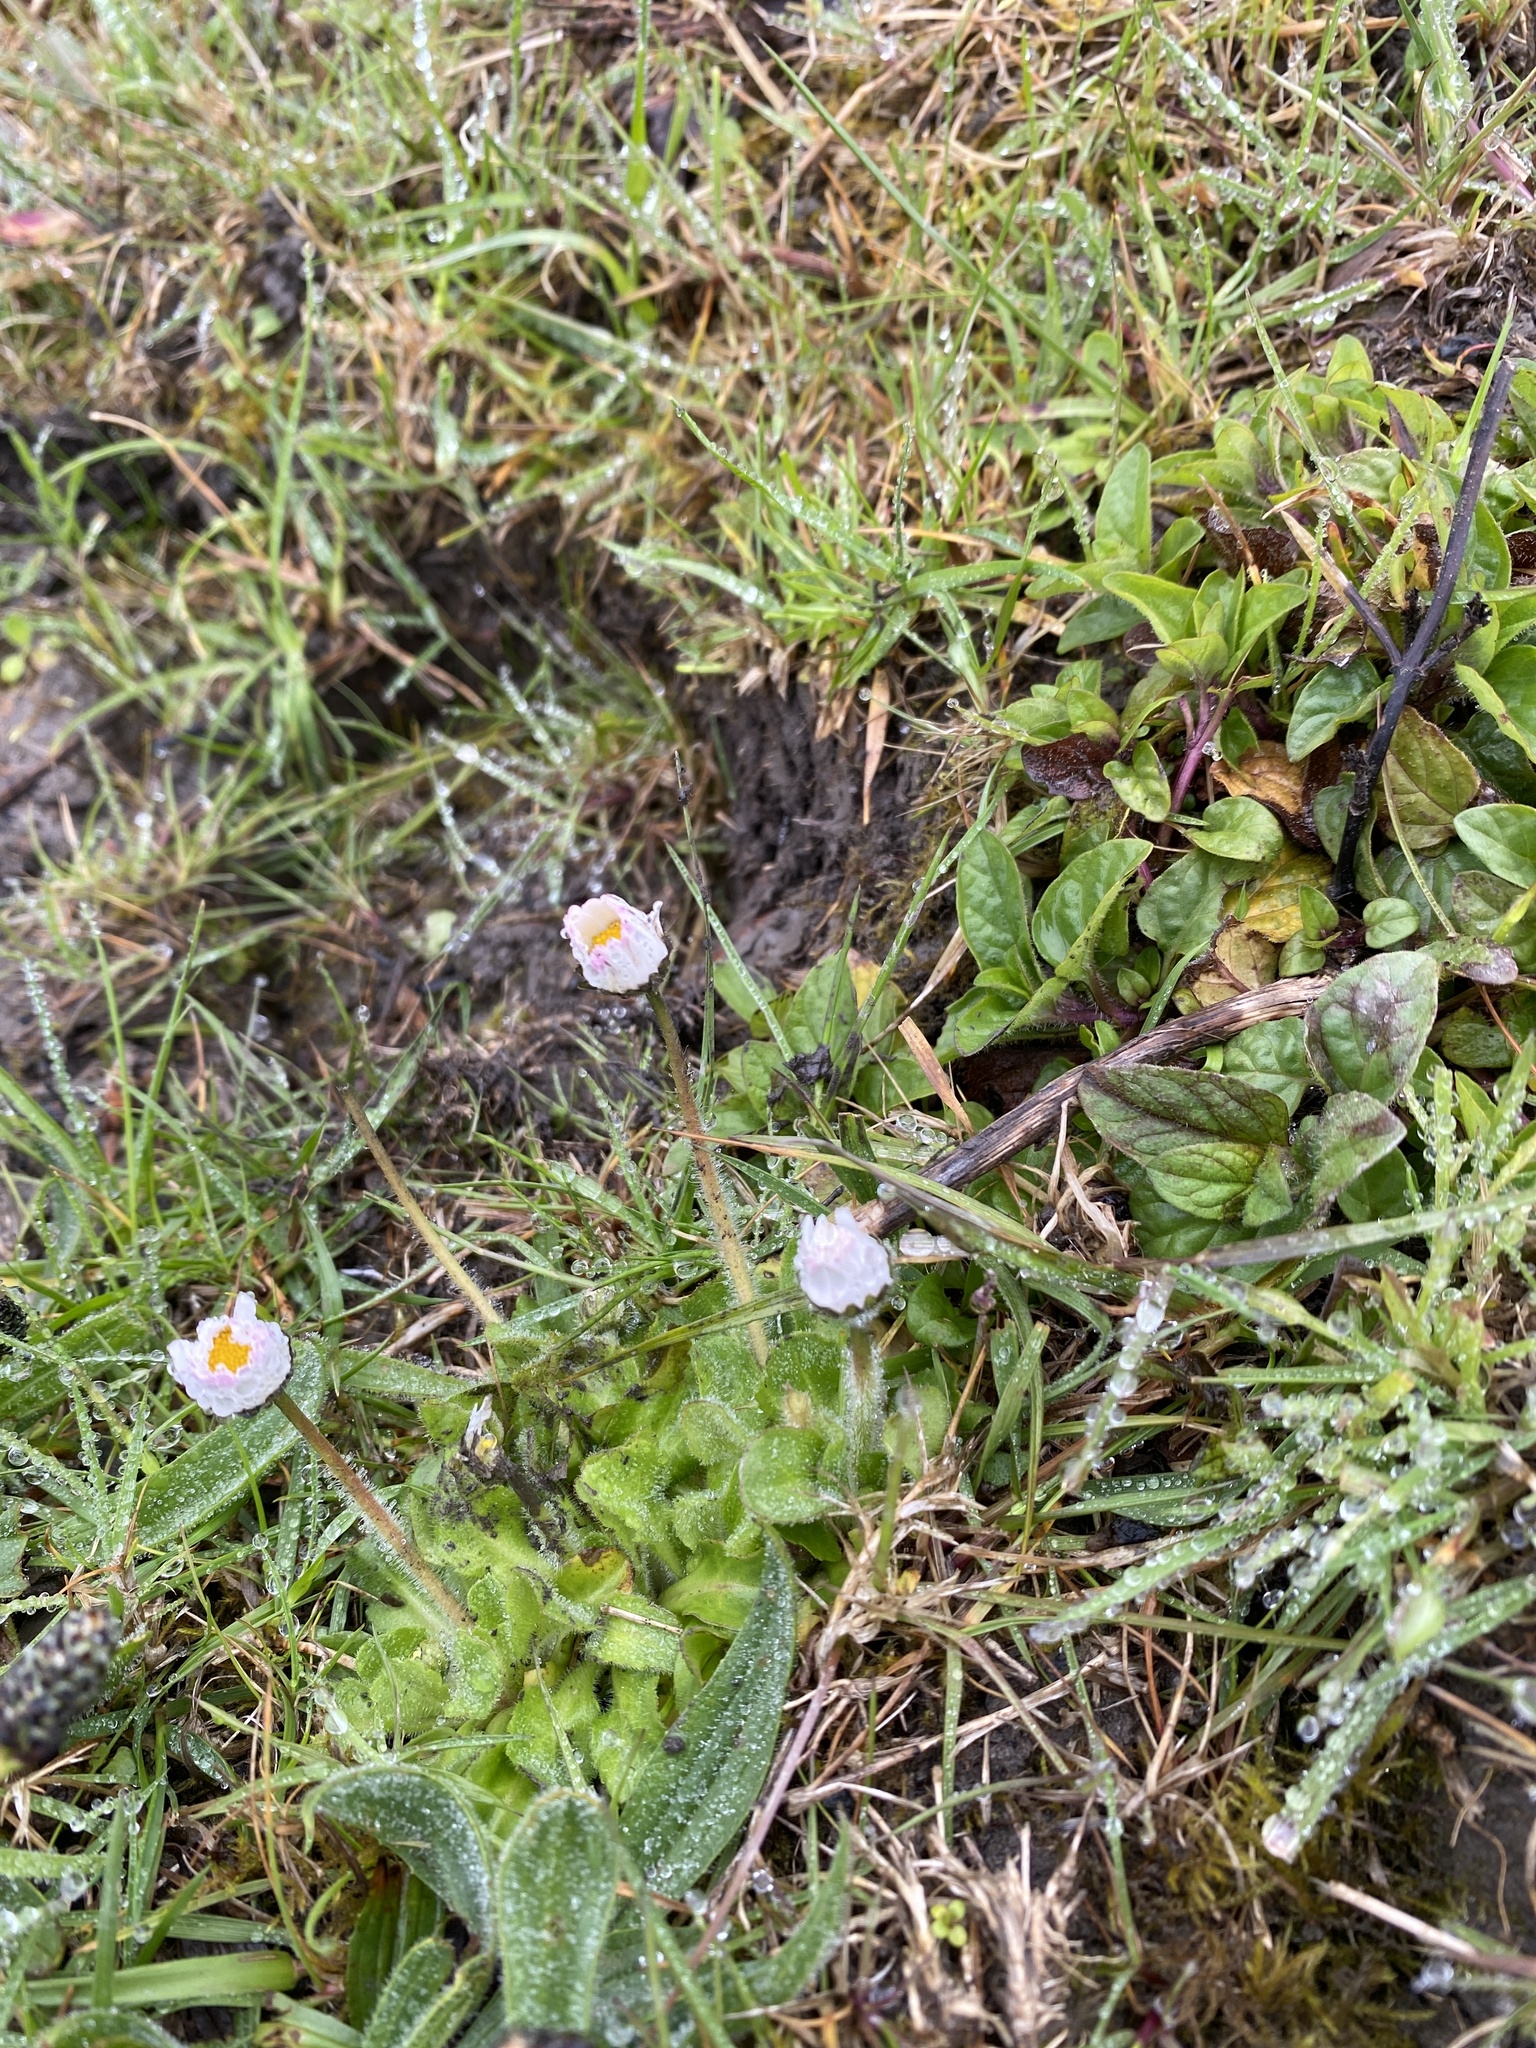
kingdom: Plantae
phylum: Tracheophyta
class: Magnoliopsida
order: Asterales
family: Asteraceae
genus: Bellis
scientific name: Bellis perennis
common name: Lawndaisy
